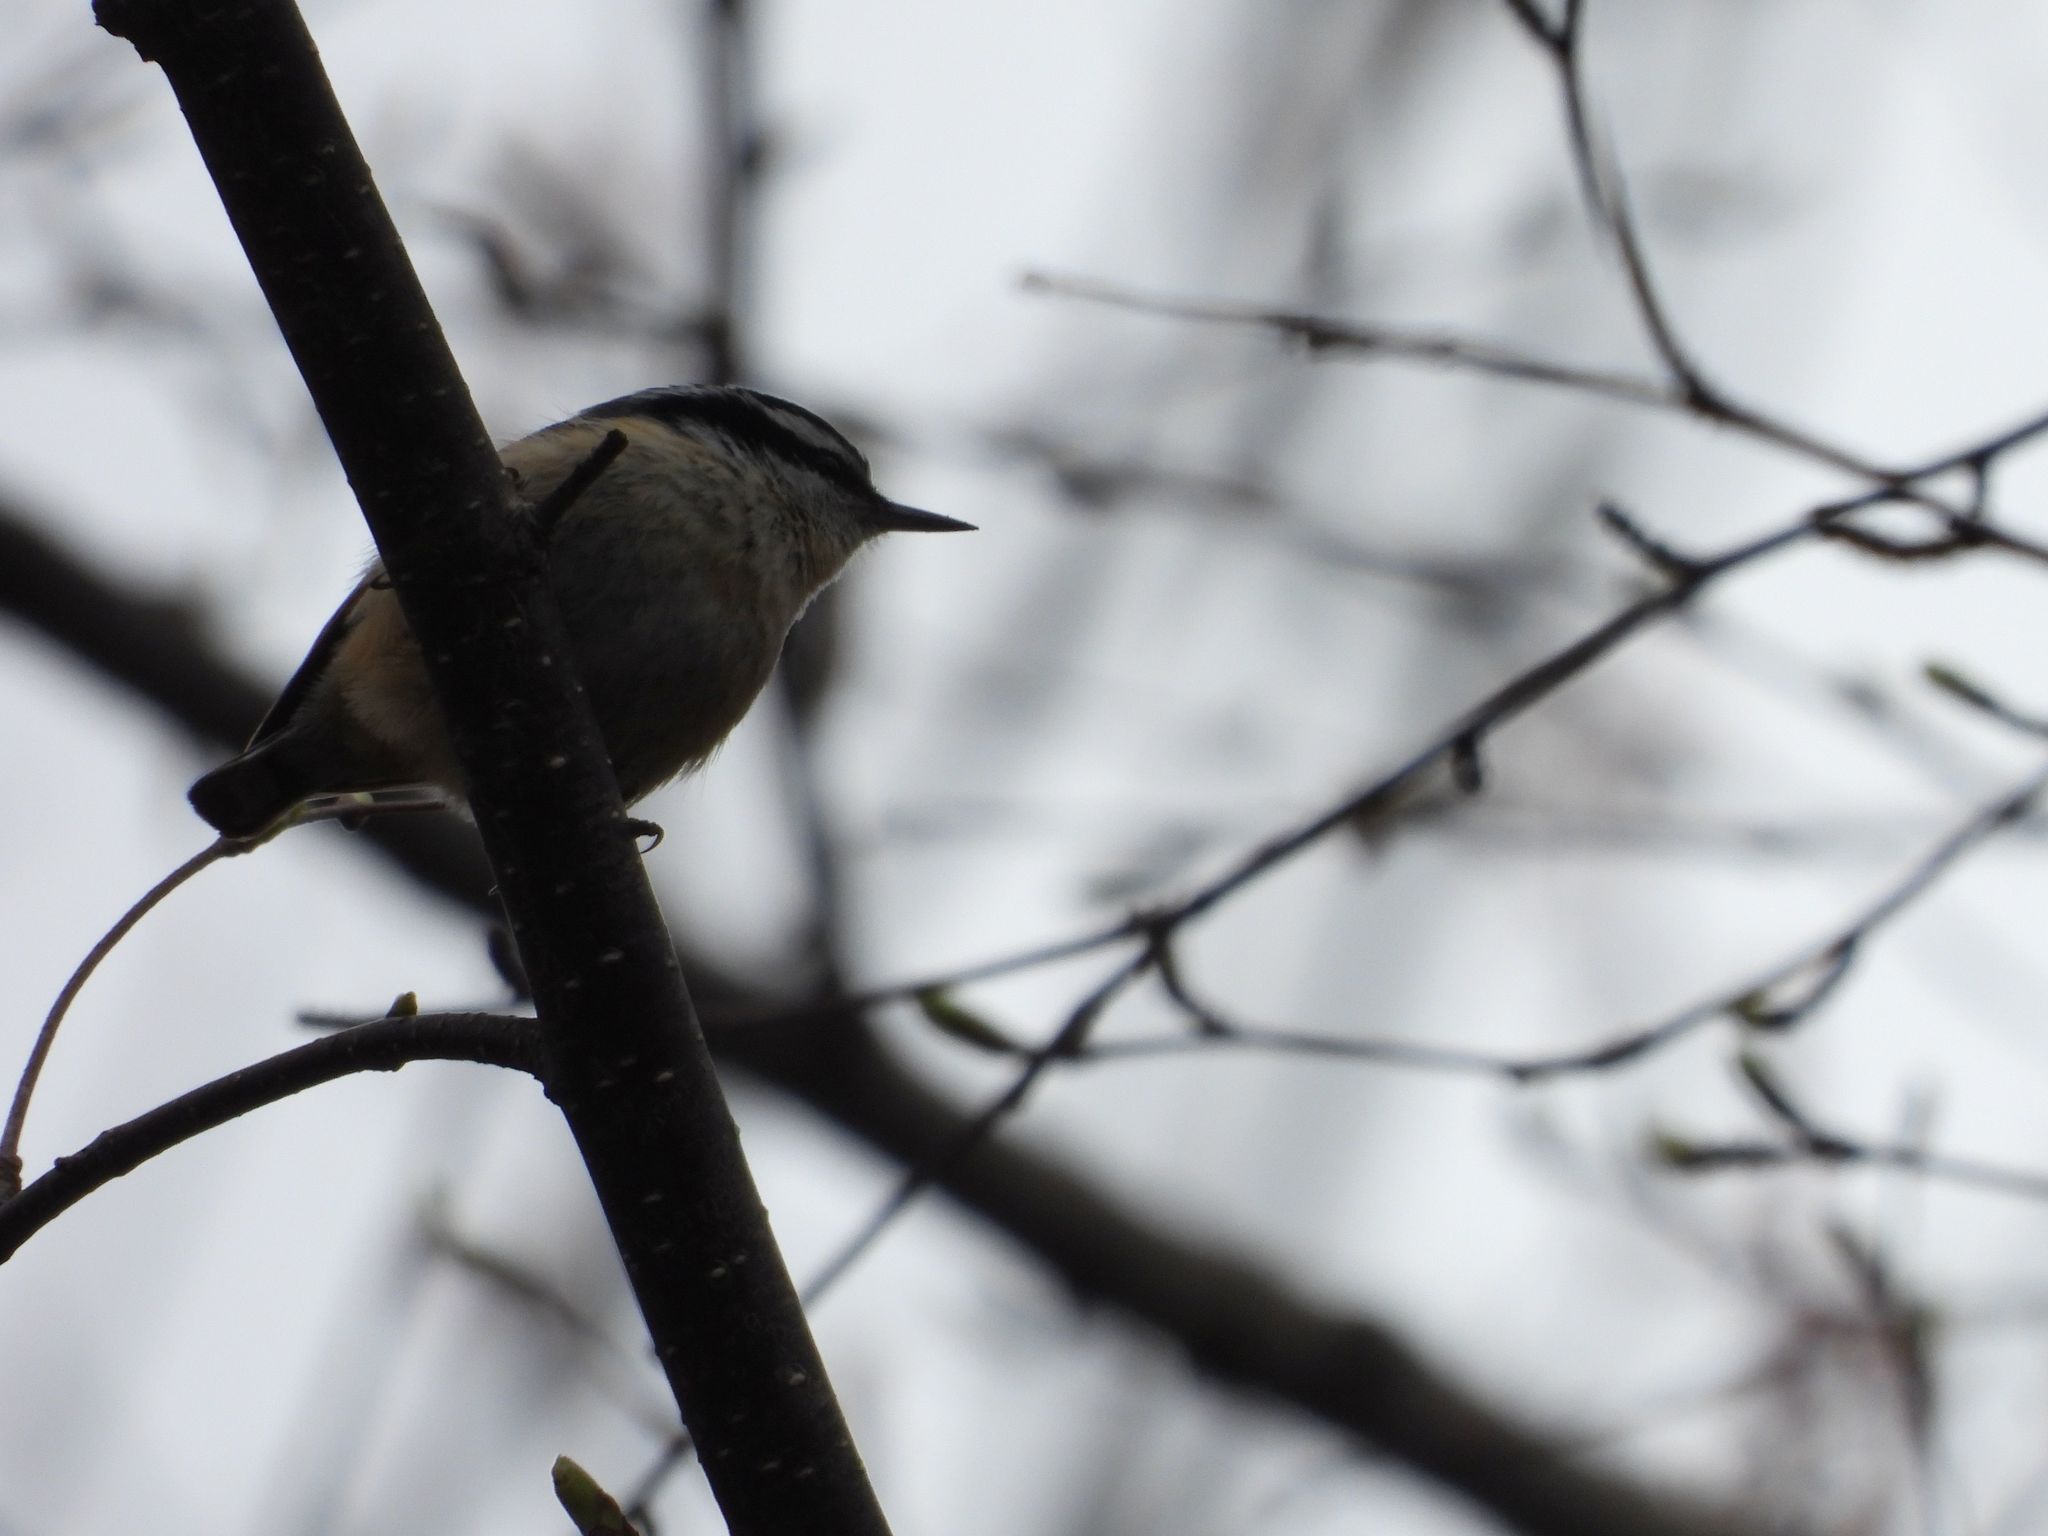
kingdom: Animalia
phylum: Chordata
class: Aves
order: Passeriformes
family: Sittidae
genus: Sitta
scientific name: Sitta canadensis
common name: Red-breasted nuthatch
